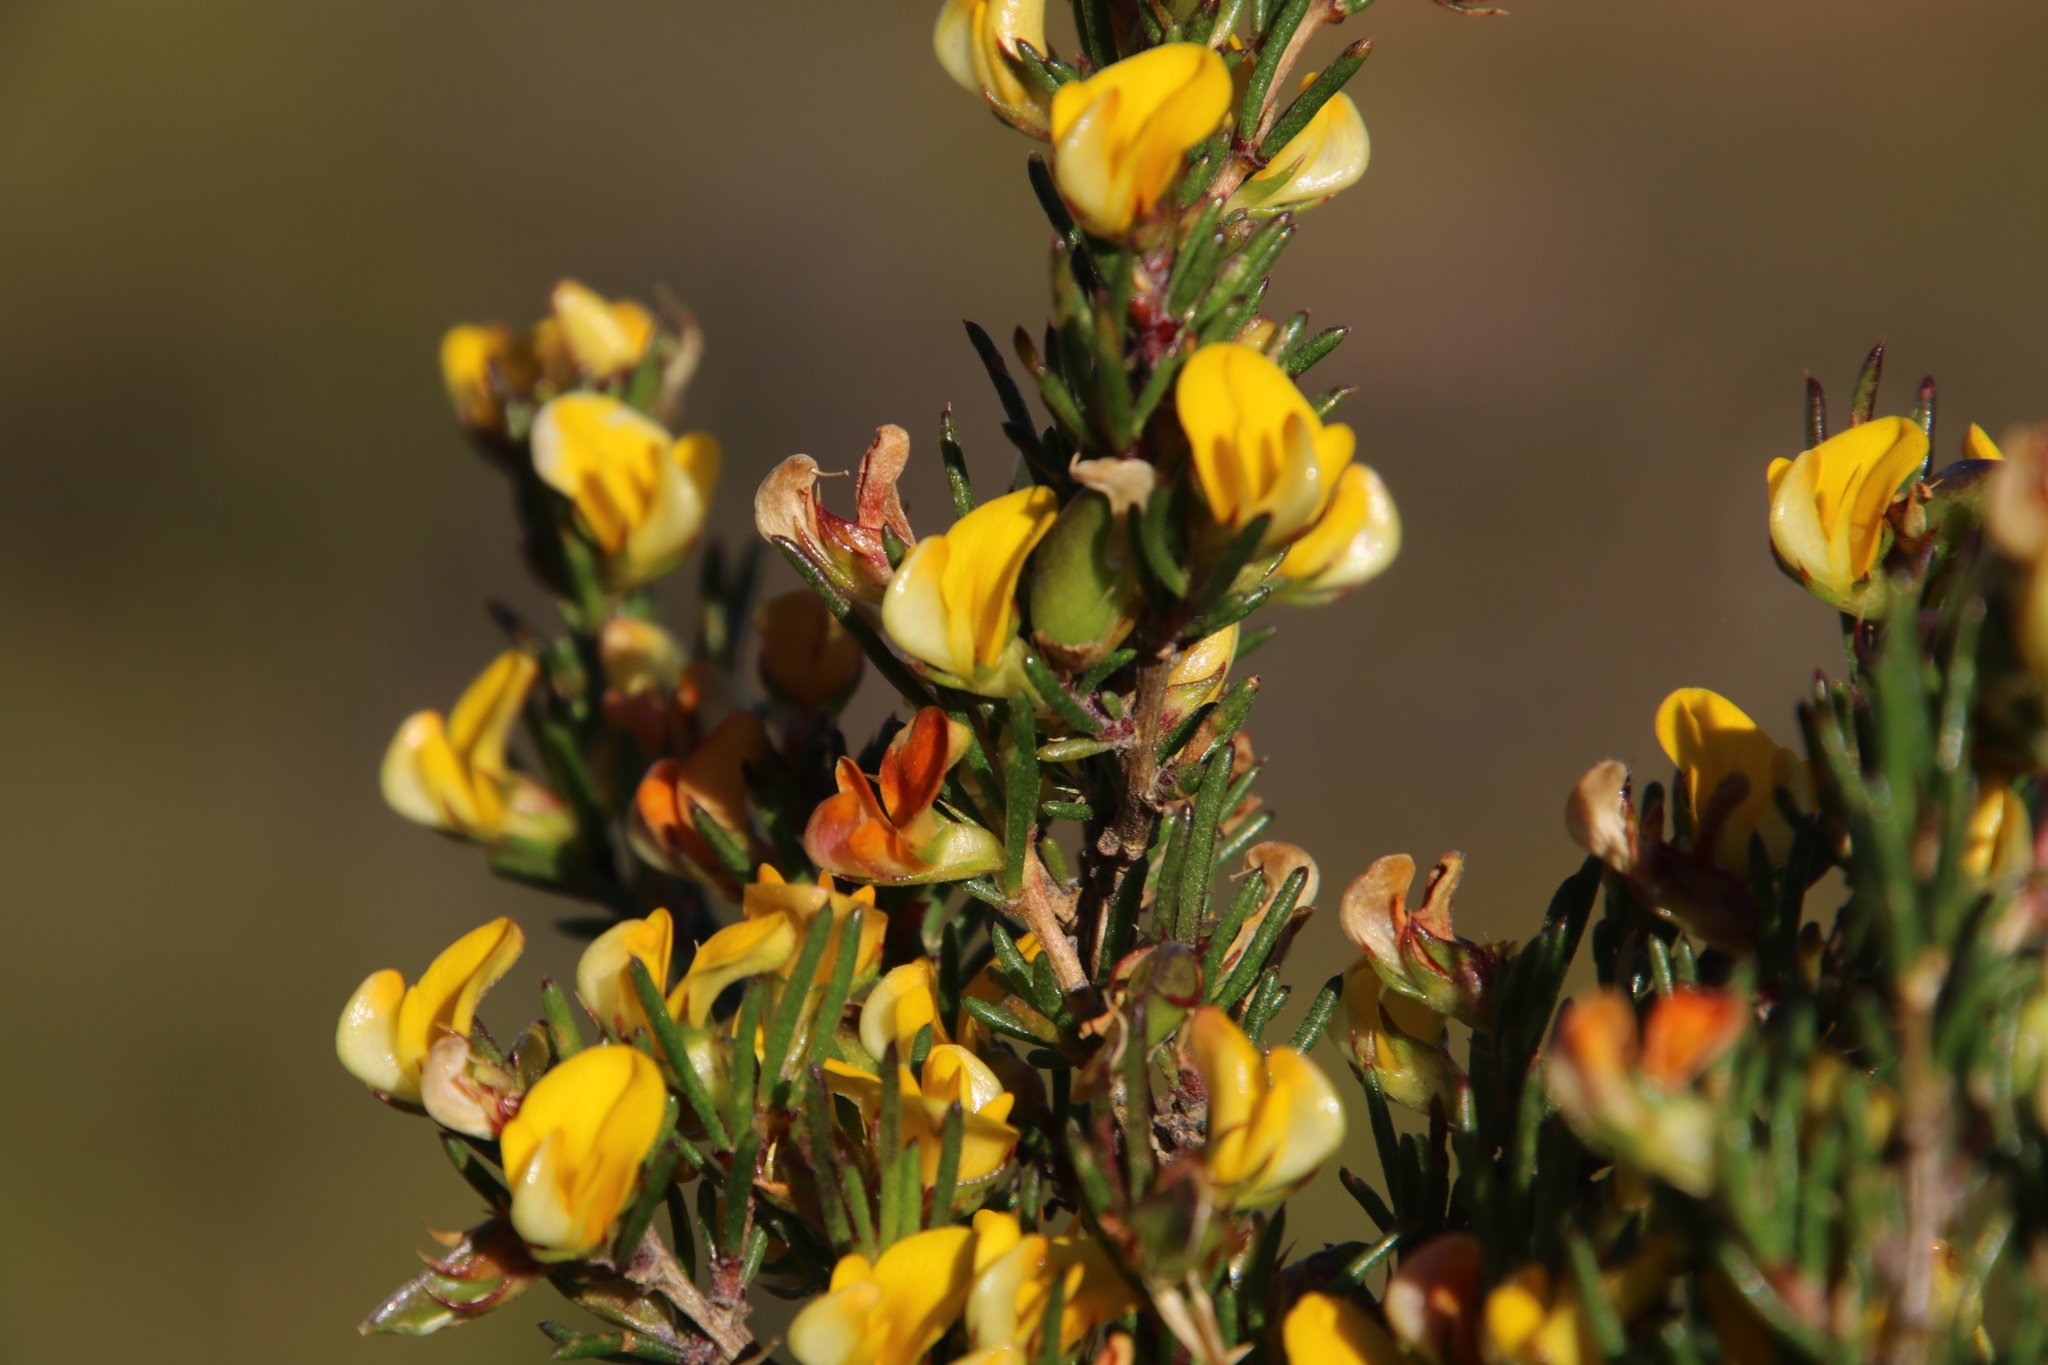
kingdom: Plantae
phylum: Tracheophyta
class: Magnoliopsida
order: Fabales
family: Fabaceae
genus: Aspalathus
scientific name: Aspalathus abietina
